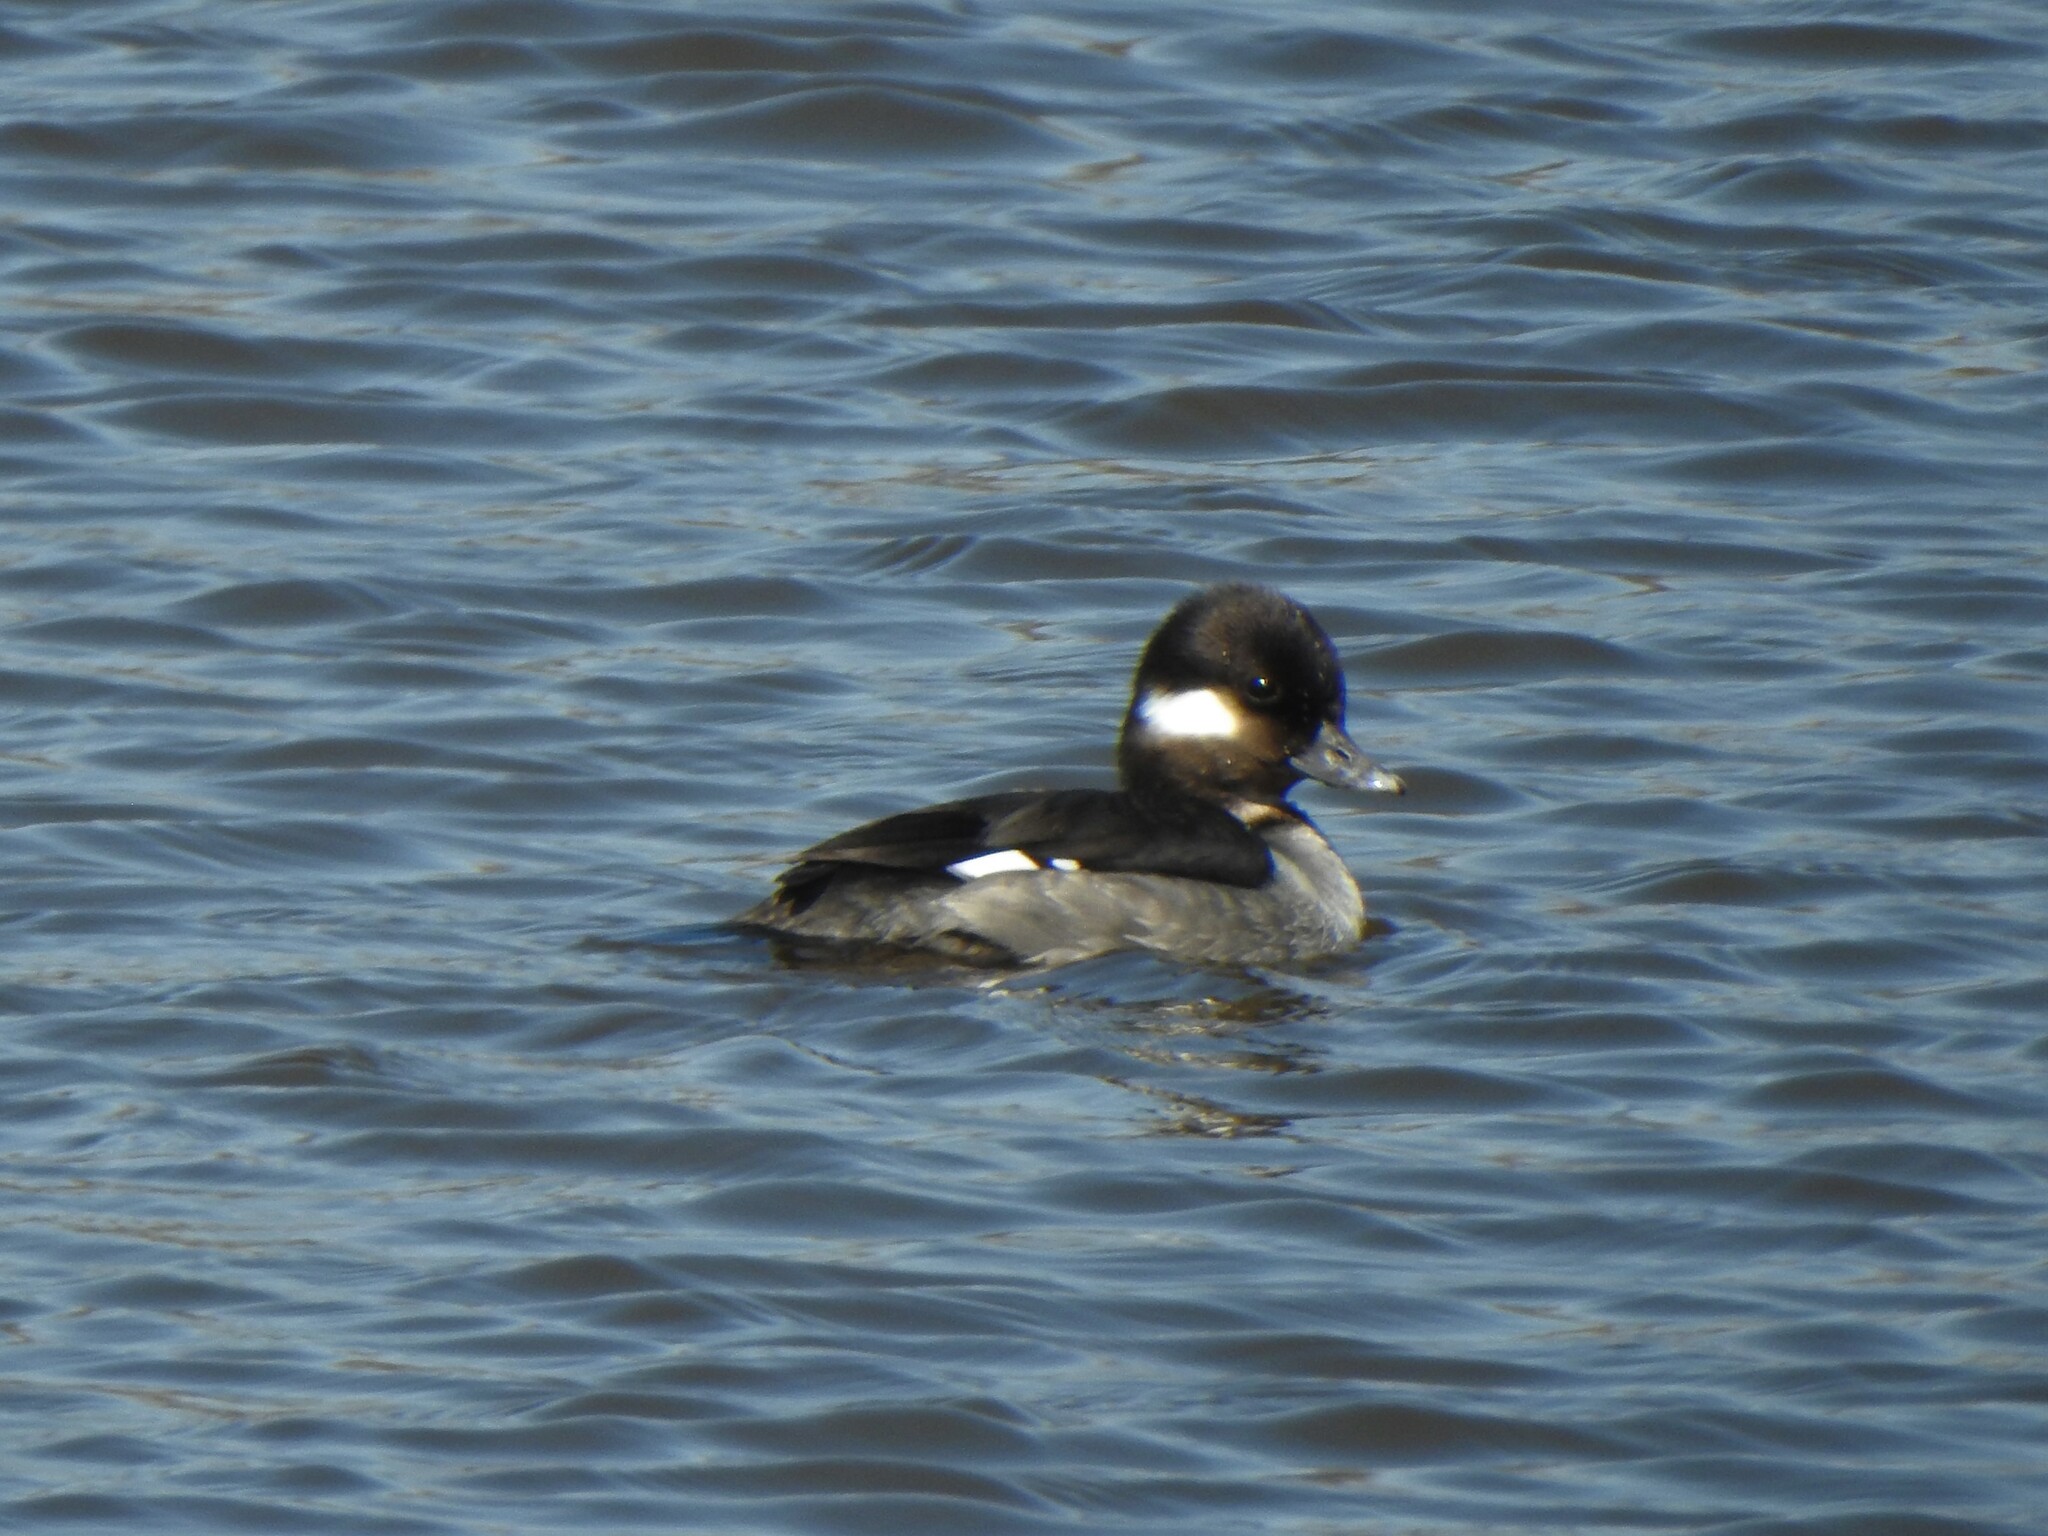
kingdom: Animalia
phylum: Chordata
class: Aves
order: Anseriformes
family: Anatidae
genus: Bucephala
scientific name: Bucephala albeola
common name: Bufflehead
